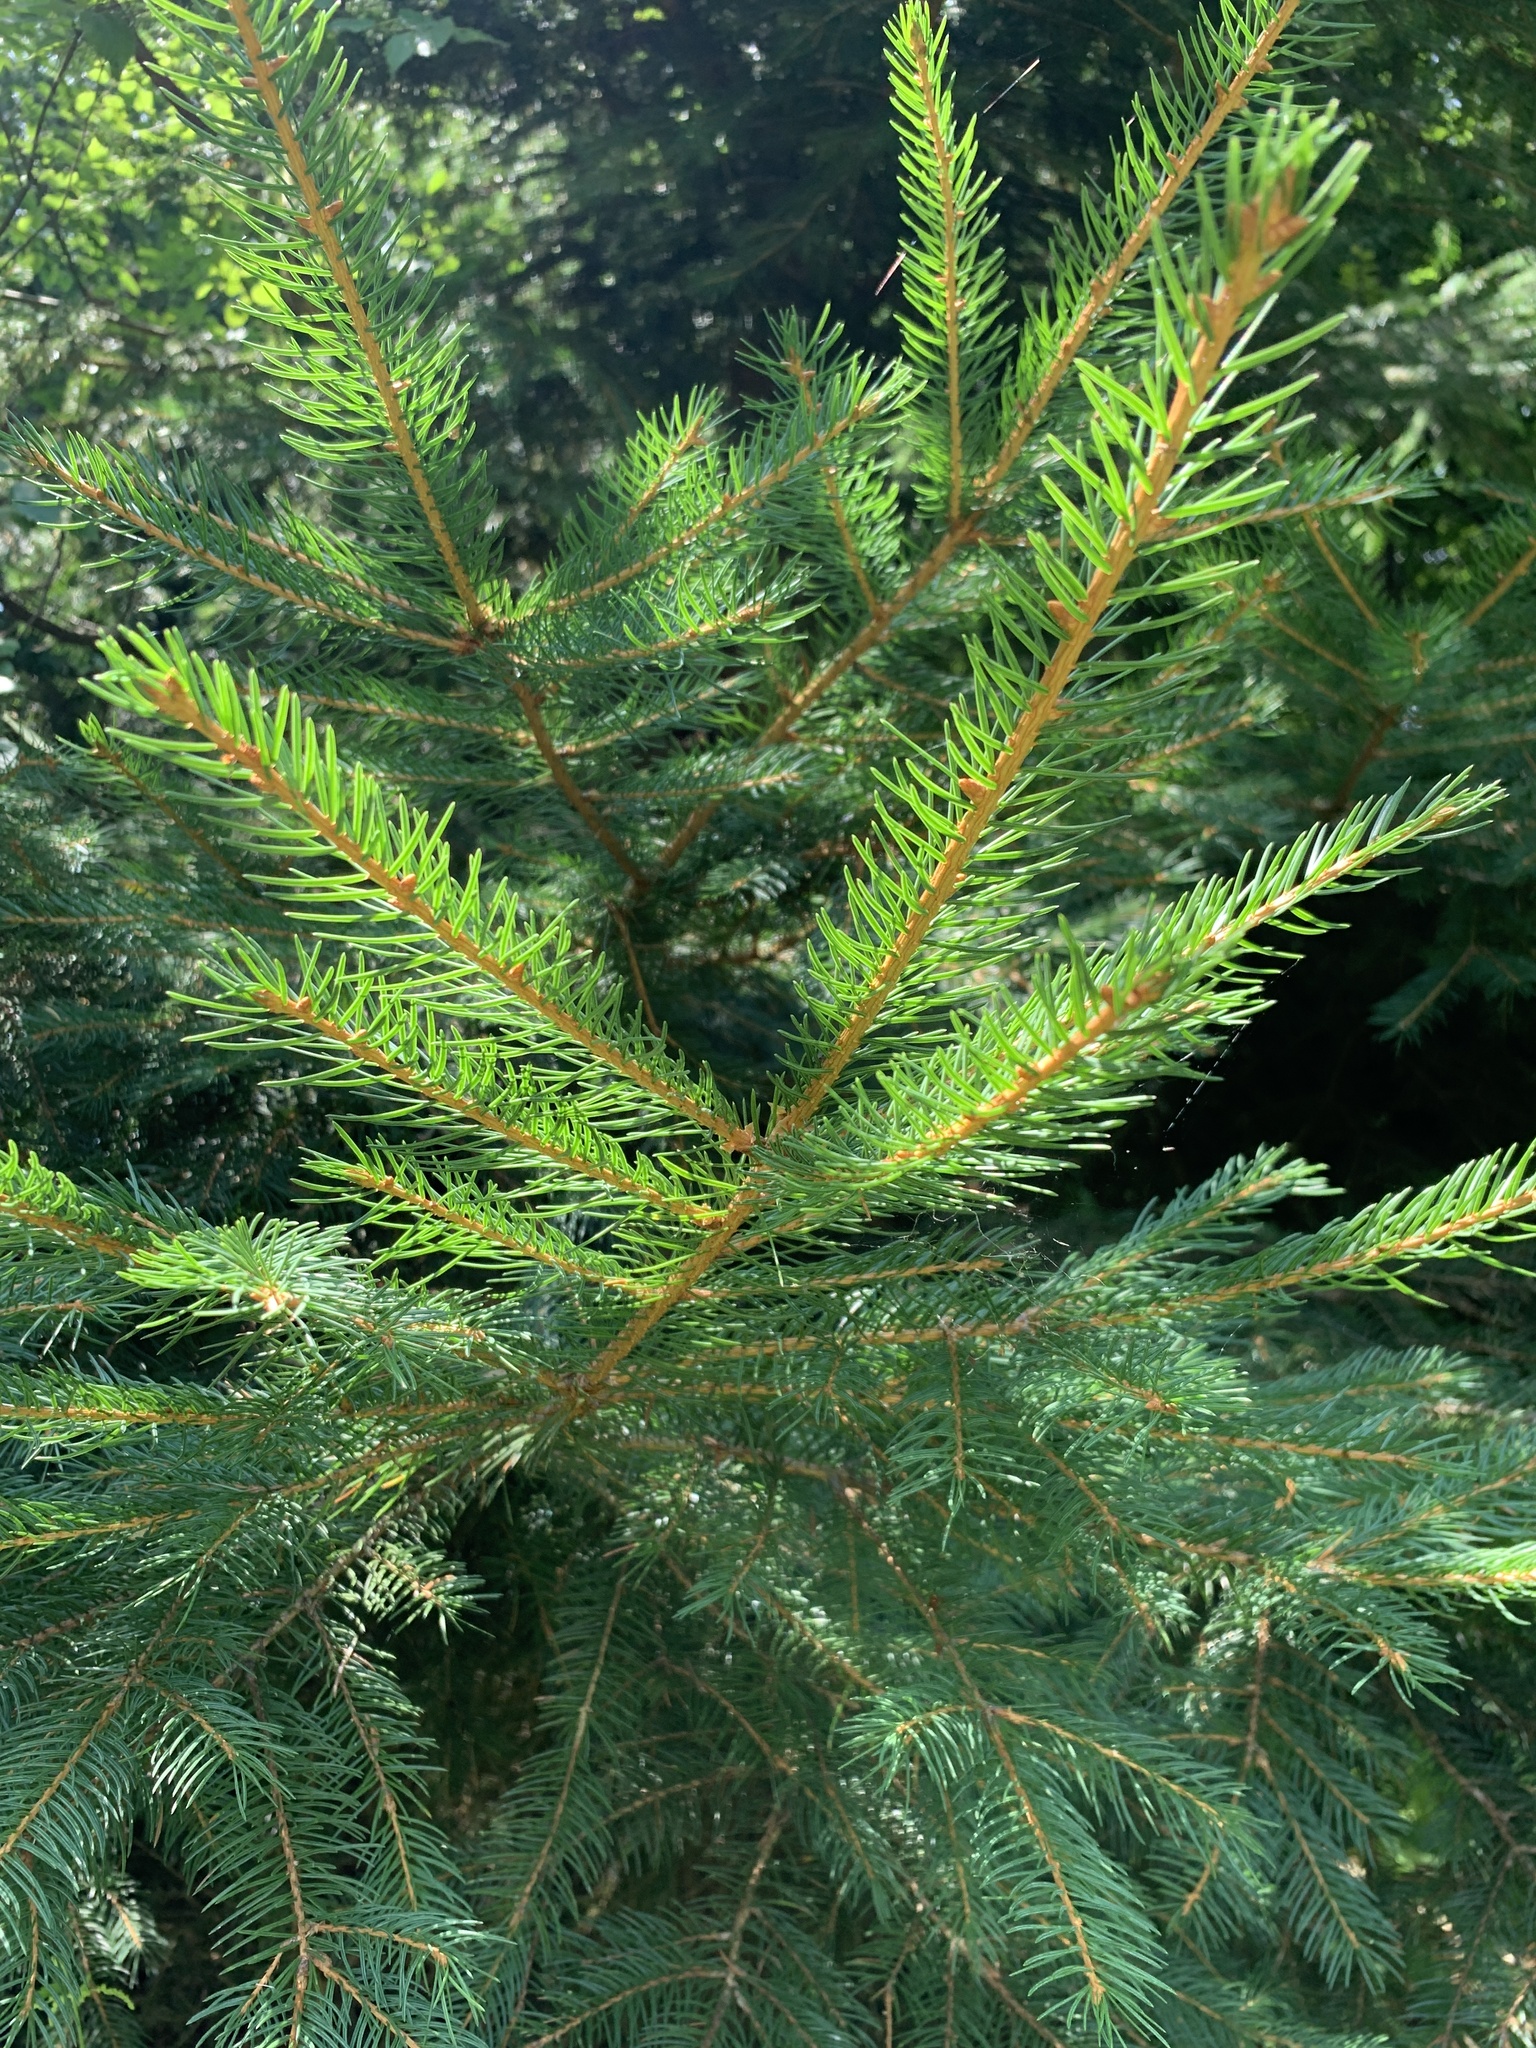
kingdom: Plantae
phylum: Tracheophyta
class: Pinopsida
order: Pinales
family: Pinaceae
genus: Picea
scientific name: Picea abies
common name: Norway spruce
